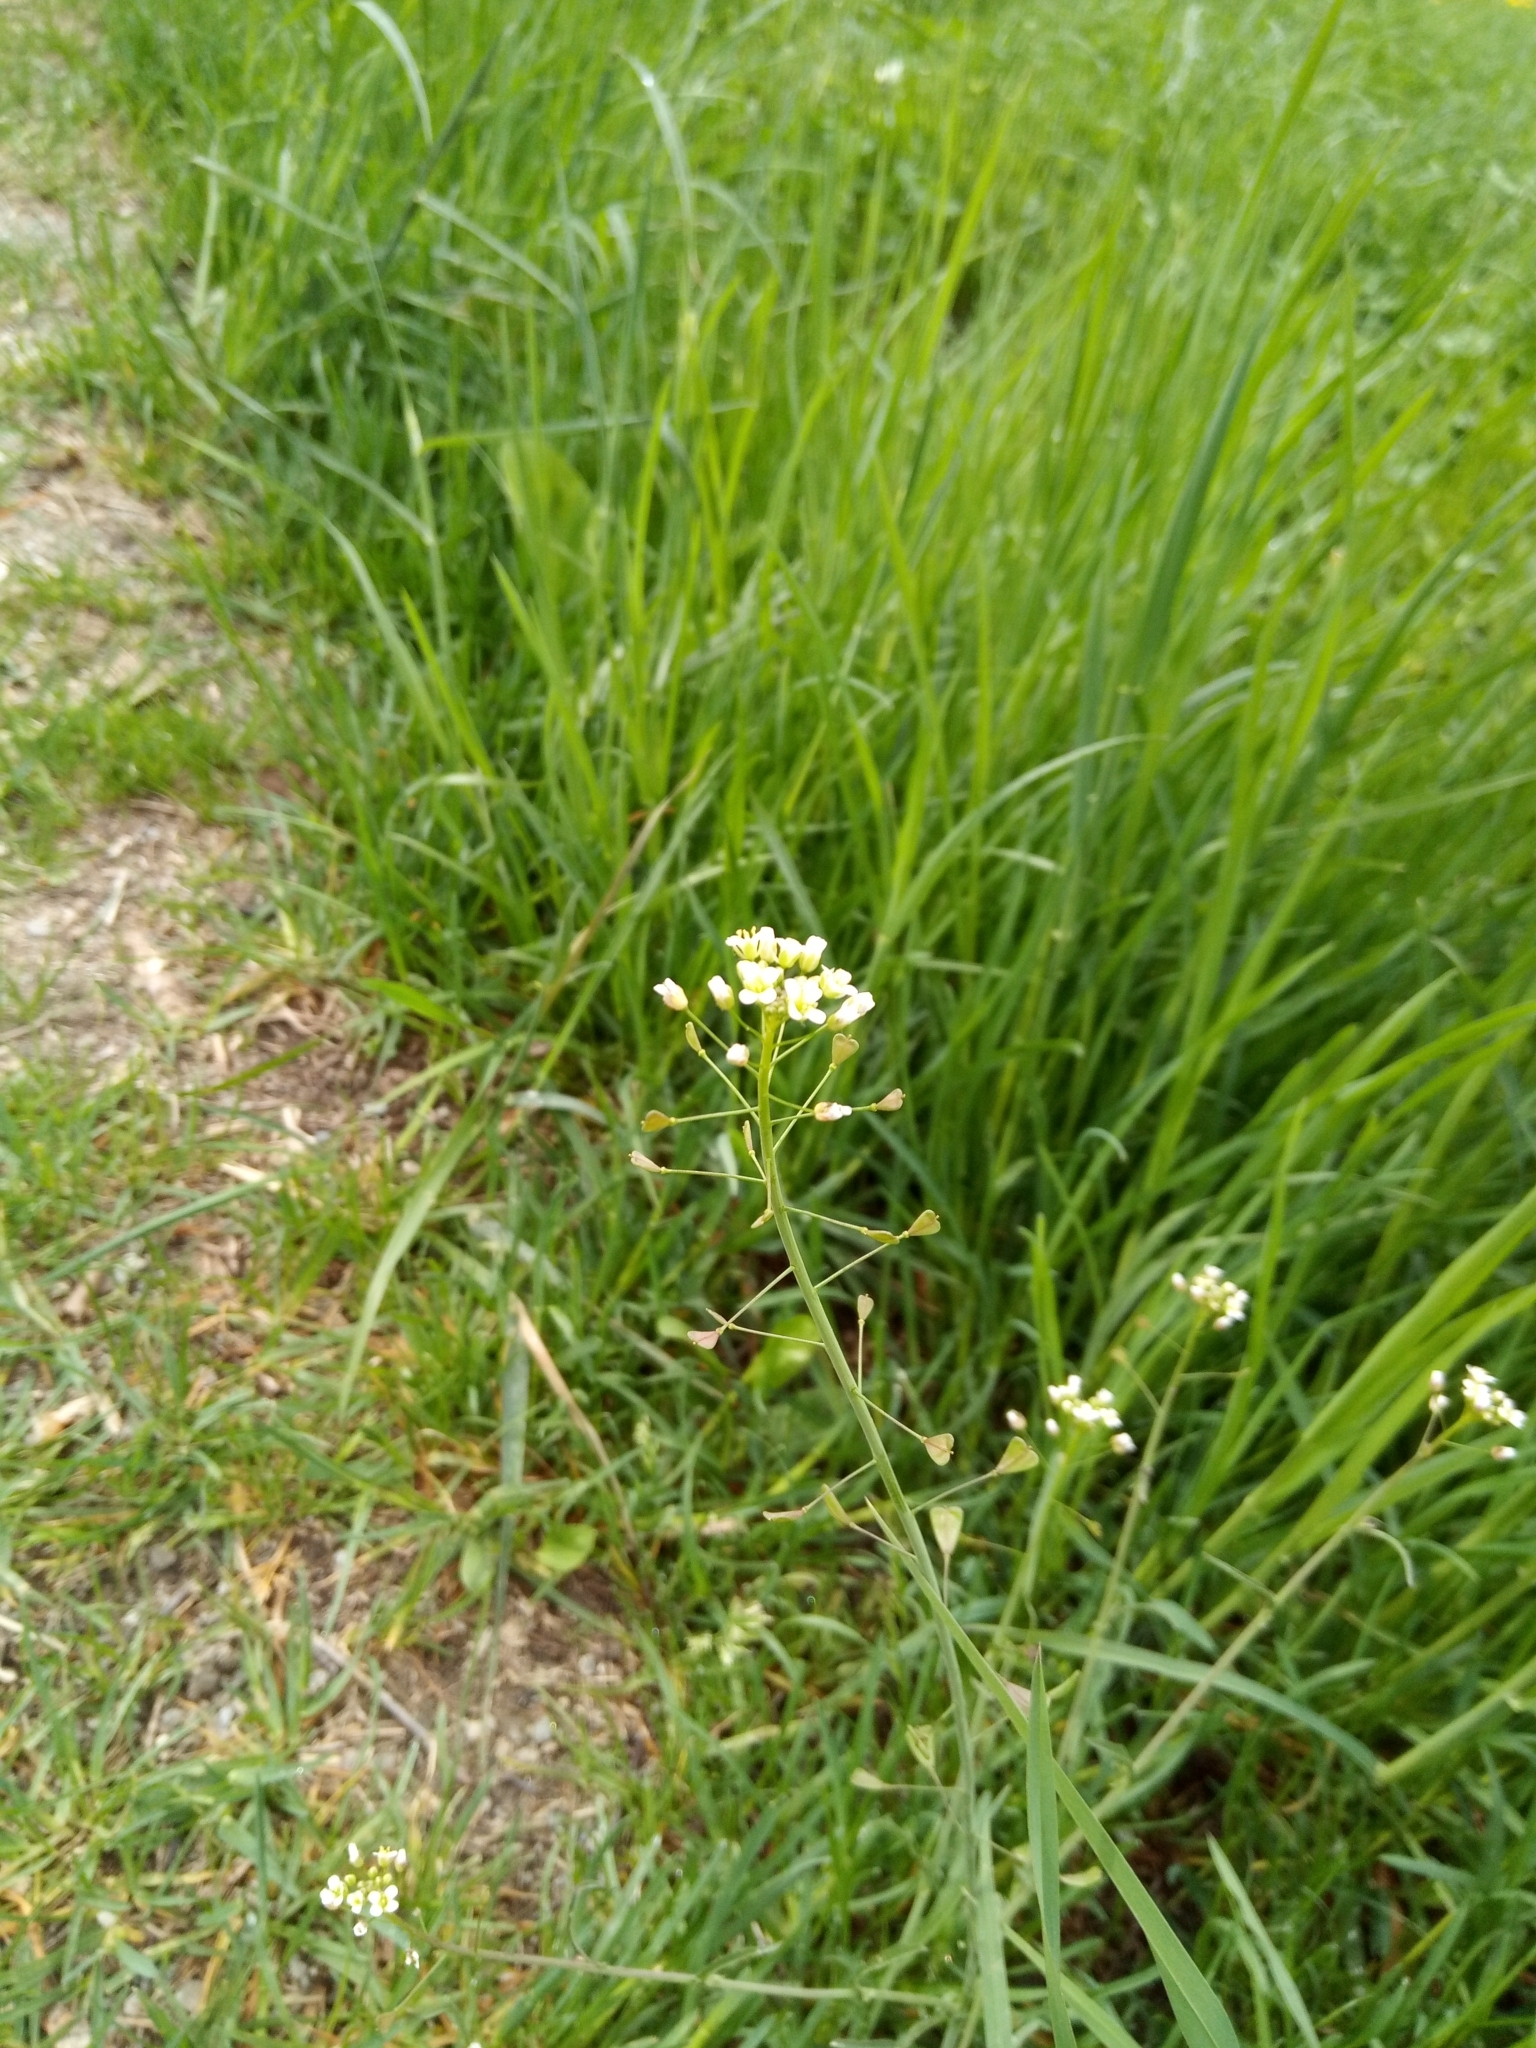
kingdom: Plantae
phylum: Tracheophyta
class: Magnoliopsida
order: Brassicales
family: Brassicaceae
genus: Capsella
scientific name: Capsella bursa-pastoris
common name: Shepherd's purse
